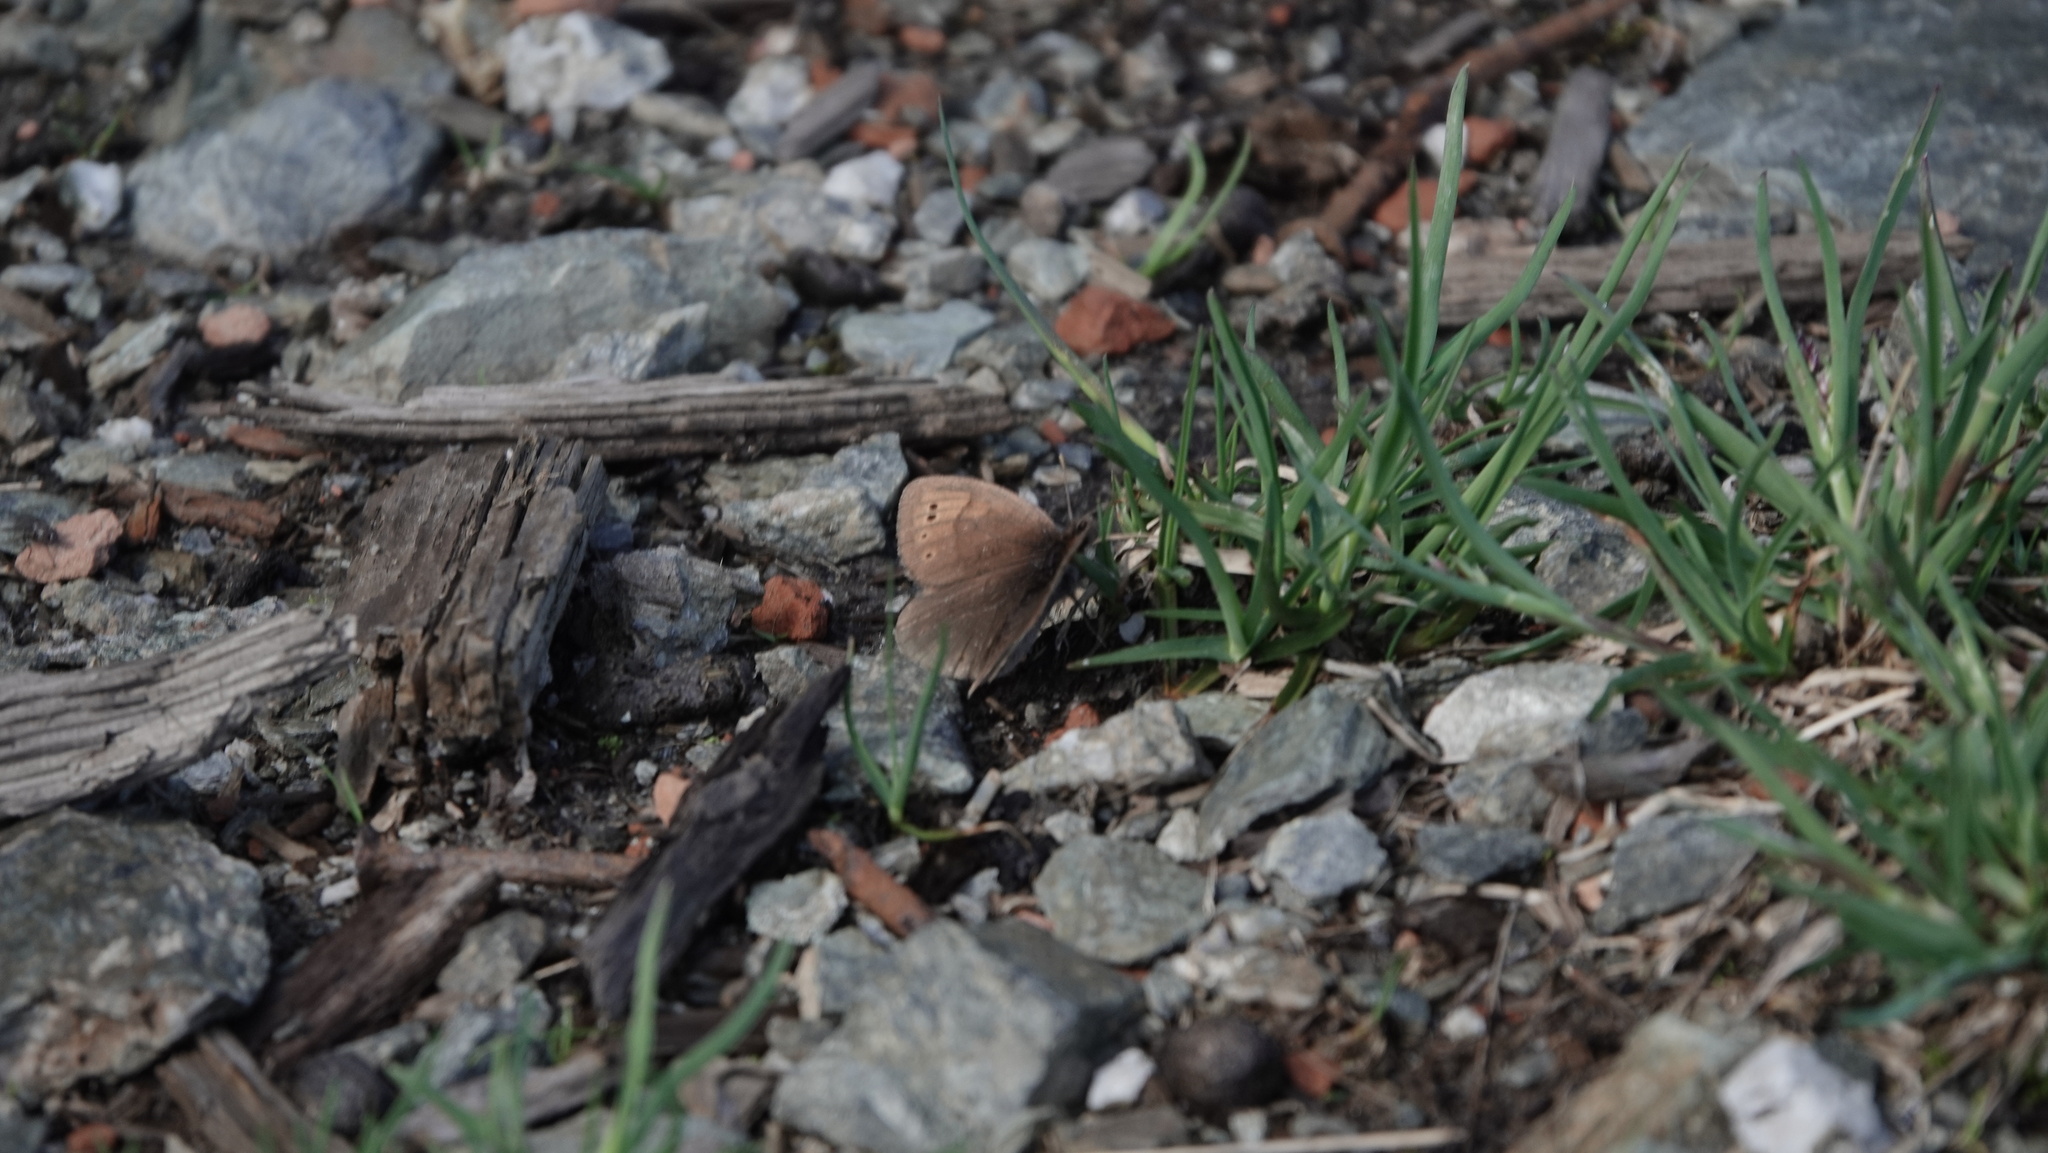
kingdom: Animalia
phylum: Arthropoda
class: Insecta
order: Lepidoptera
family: Nymphalidae
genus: Erebia
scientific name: Erebia pandrose
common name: Dewy ringlet
